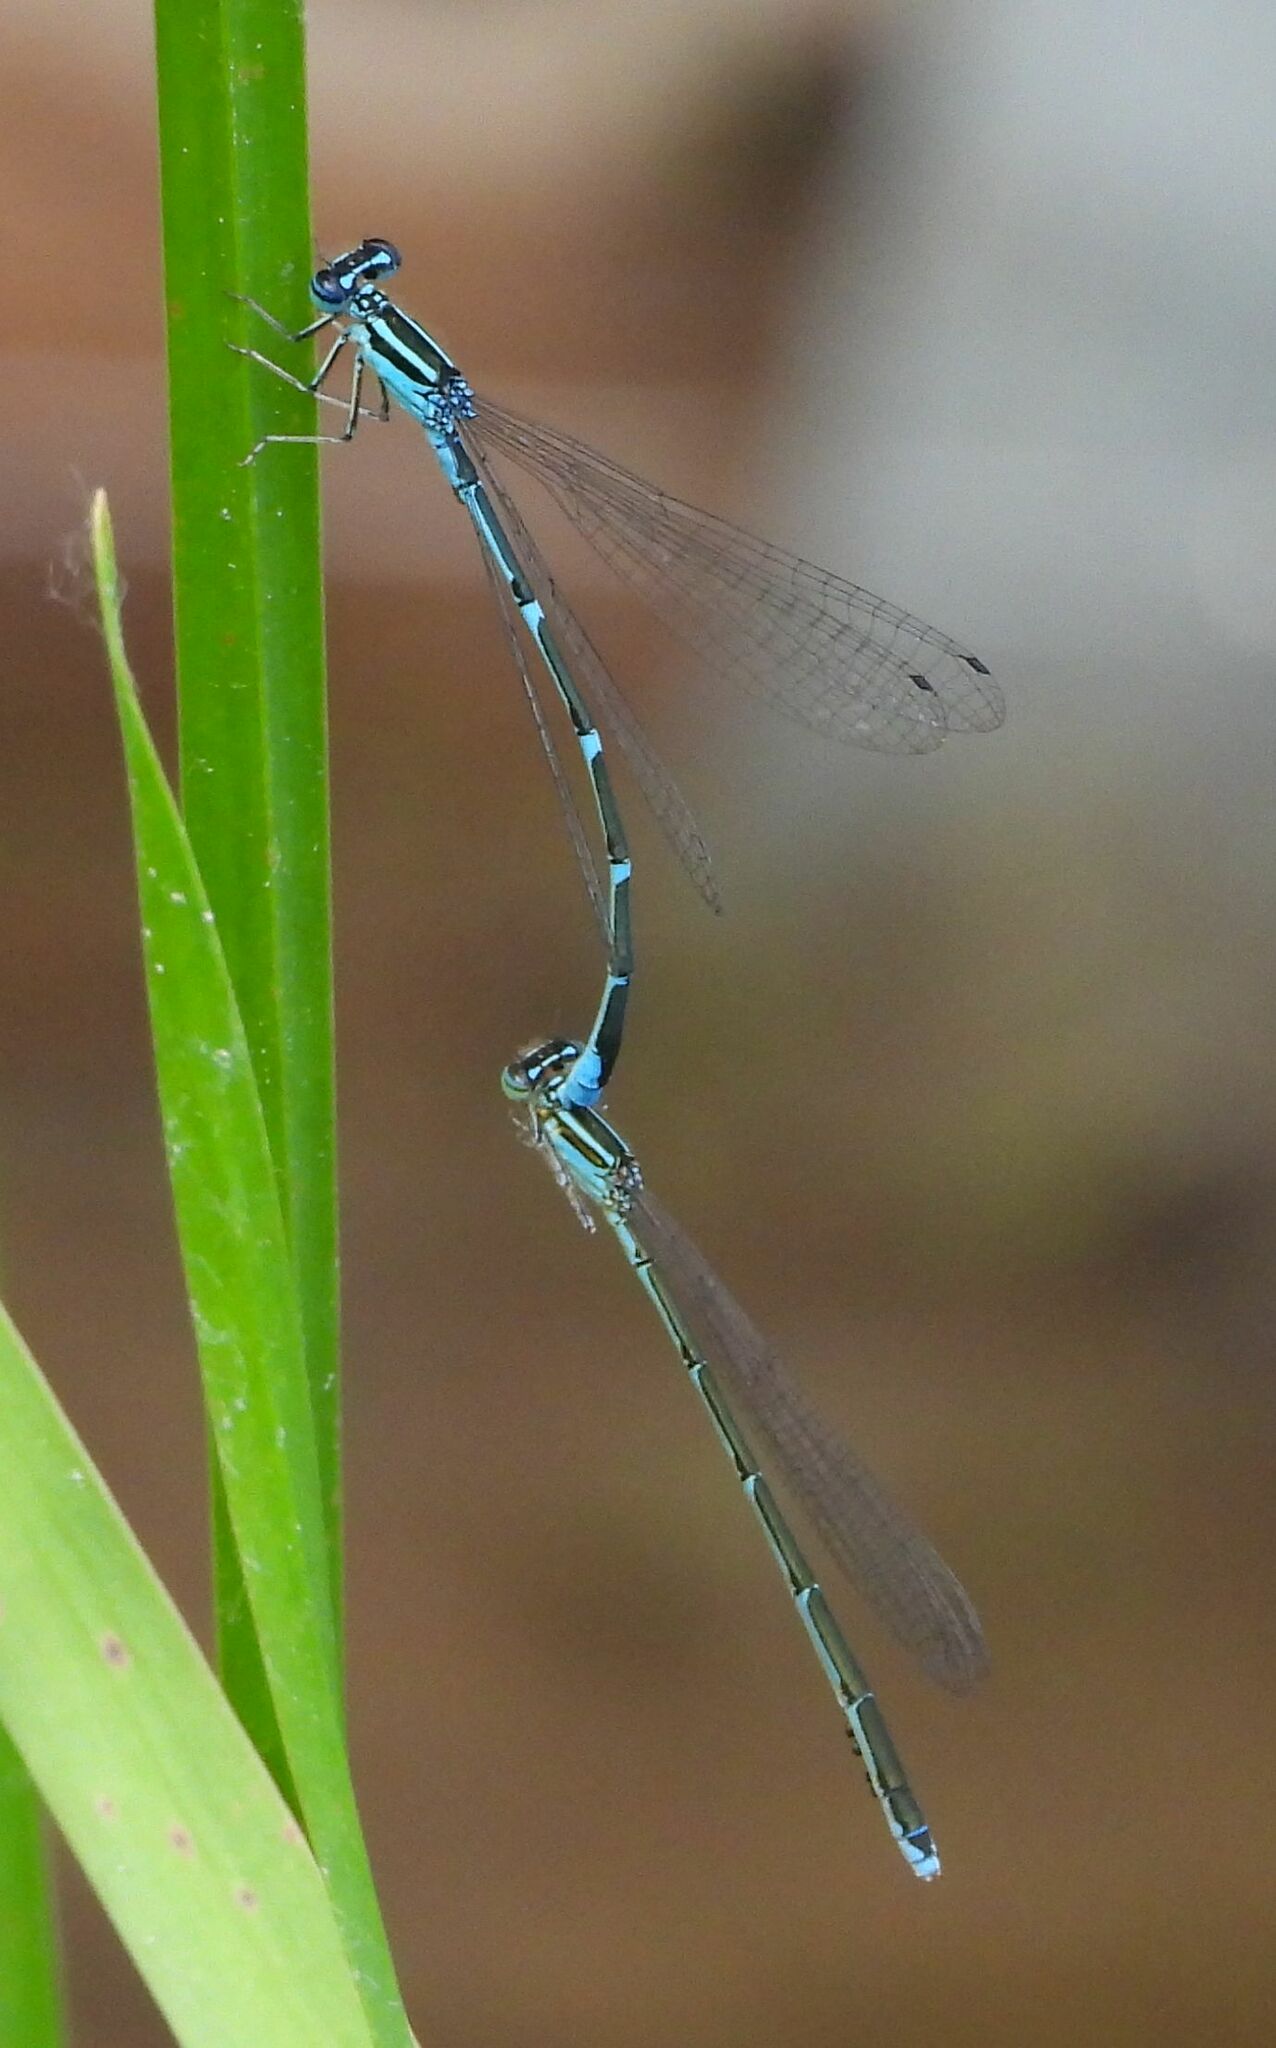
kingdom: Animalia
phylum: Arthropoda
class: Insecta
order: Odonata
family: Coenagrionidae
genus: Enallagma
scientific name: Enallagma exsulans
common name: Stream bluet
